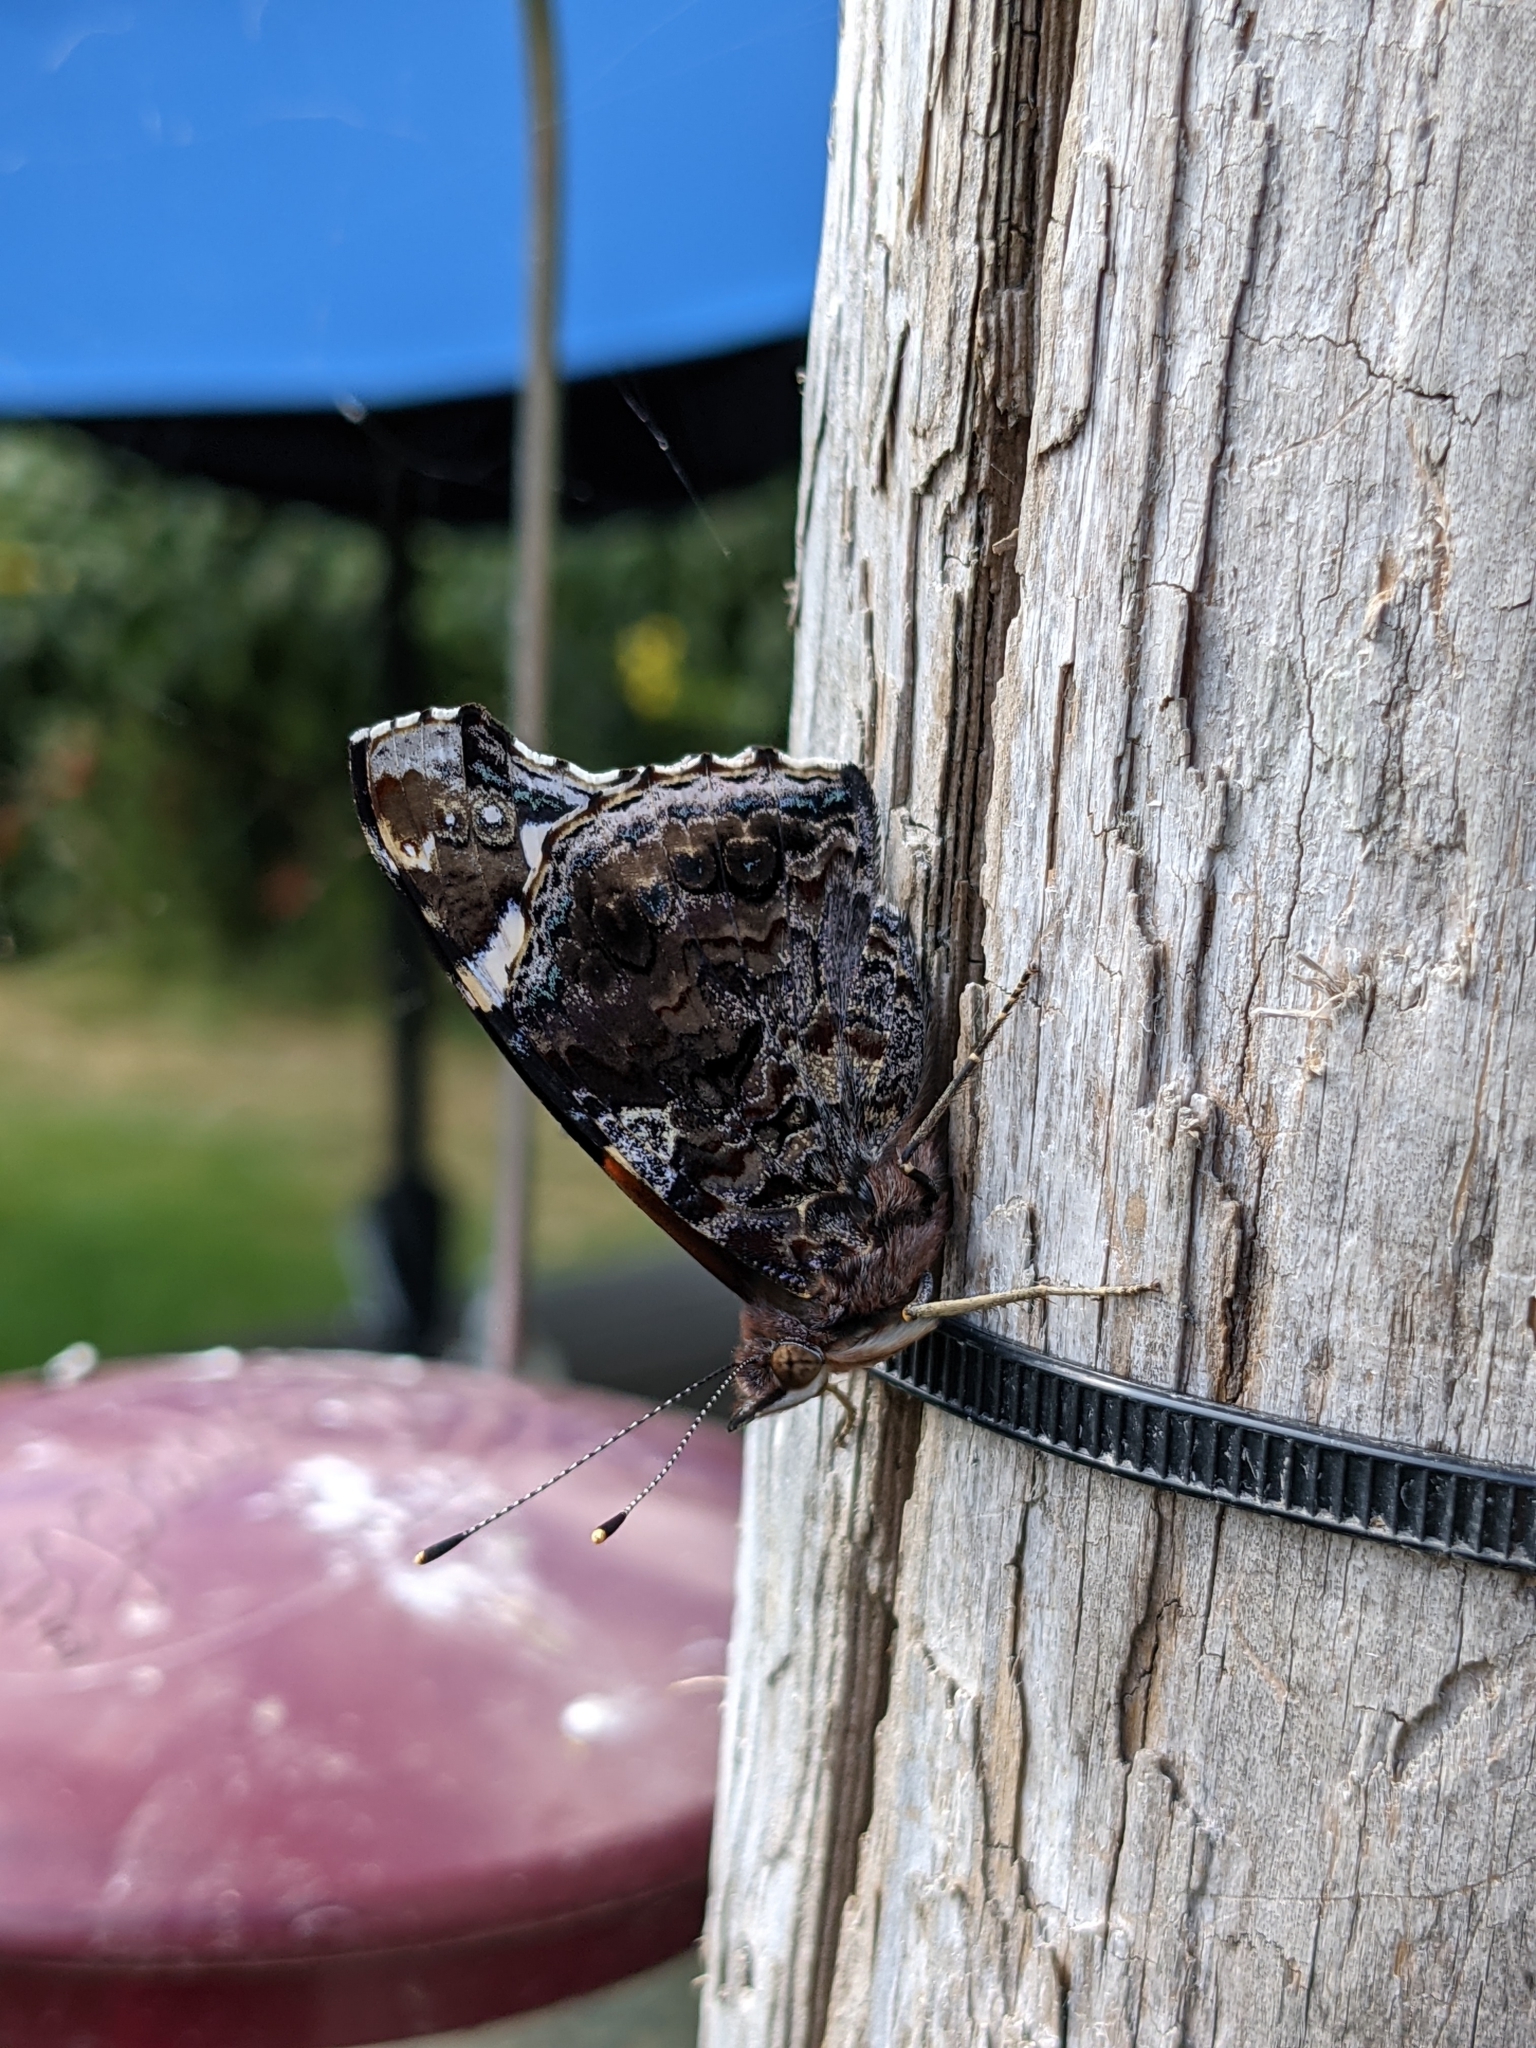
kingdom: Animalia
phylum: Arthropoda
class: Insecta
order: Lepidoptera
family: Nymphalidae
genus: Vanessa
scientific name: Vanessa atalanta
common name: Red admiral
